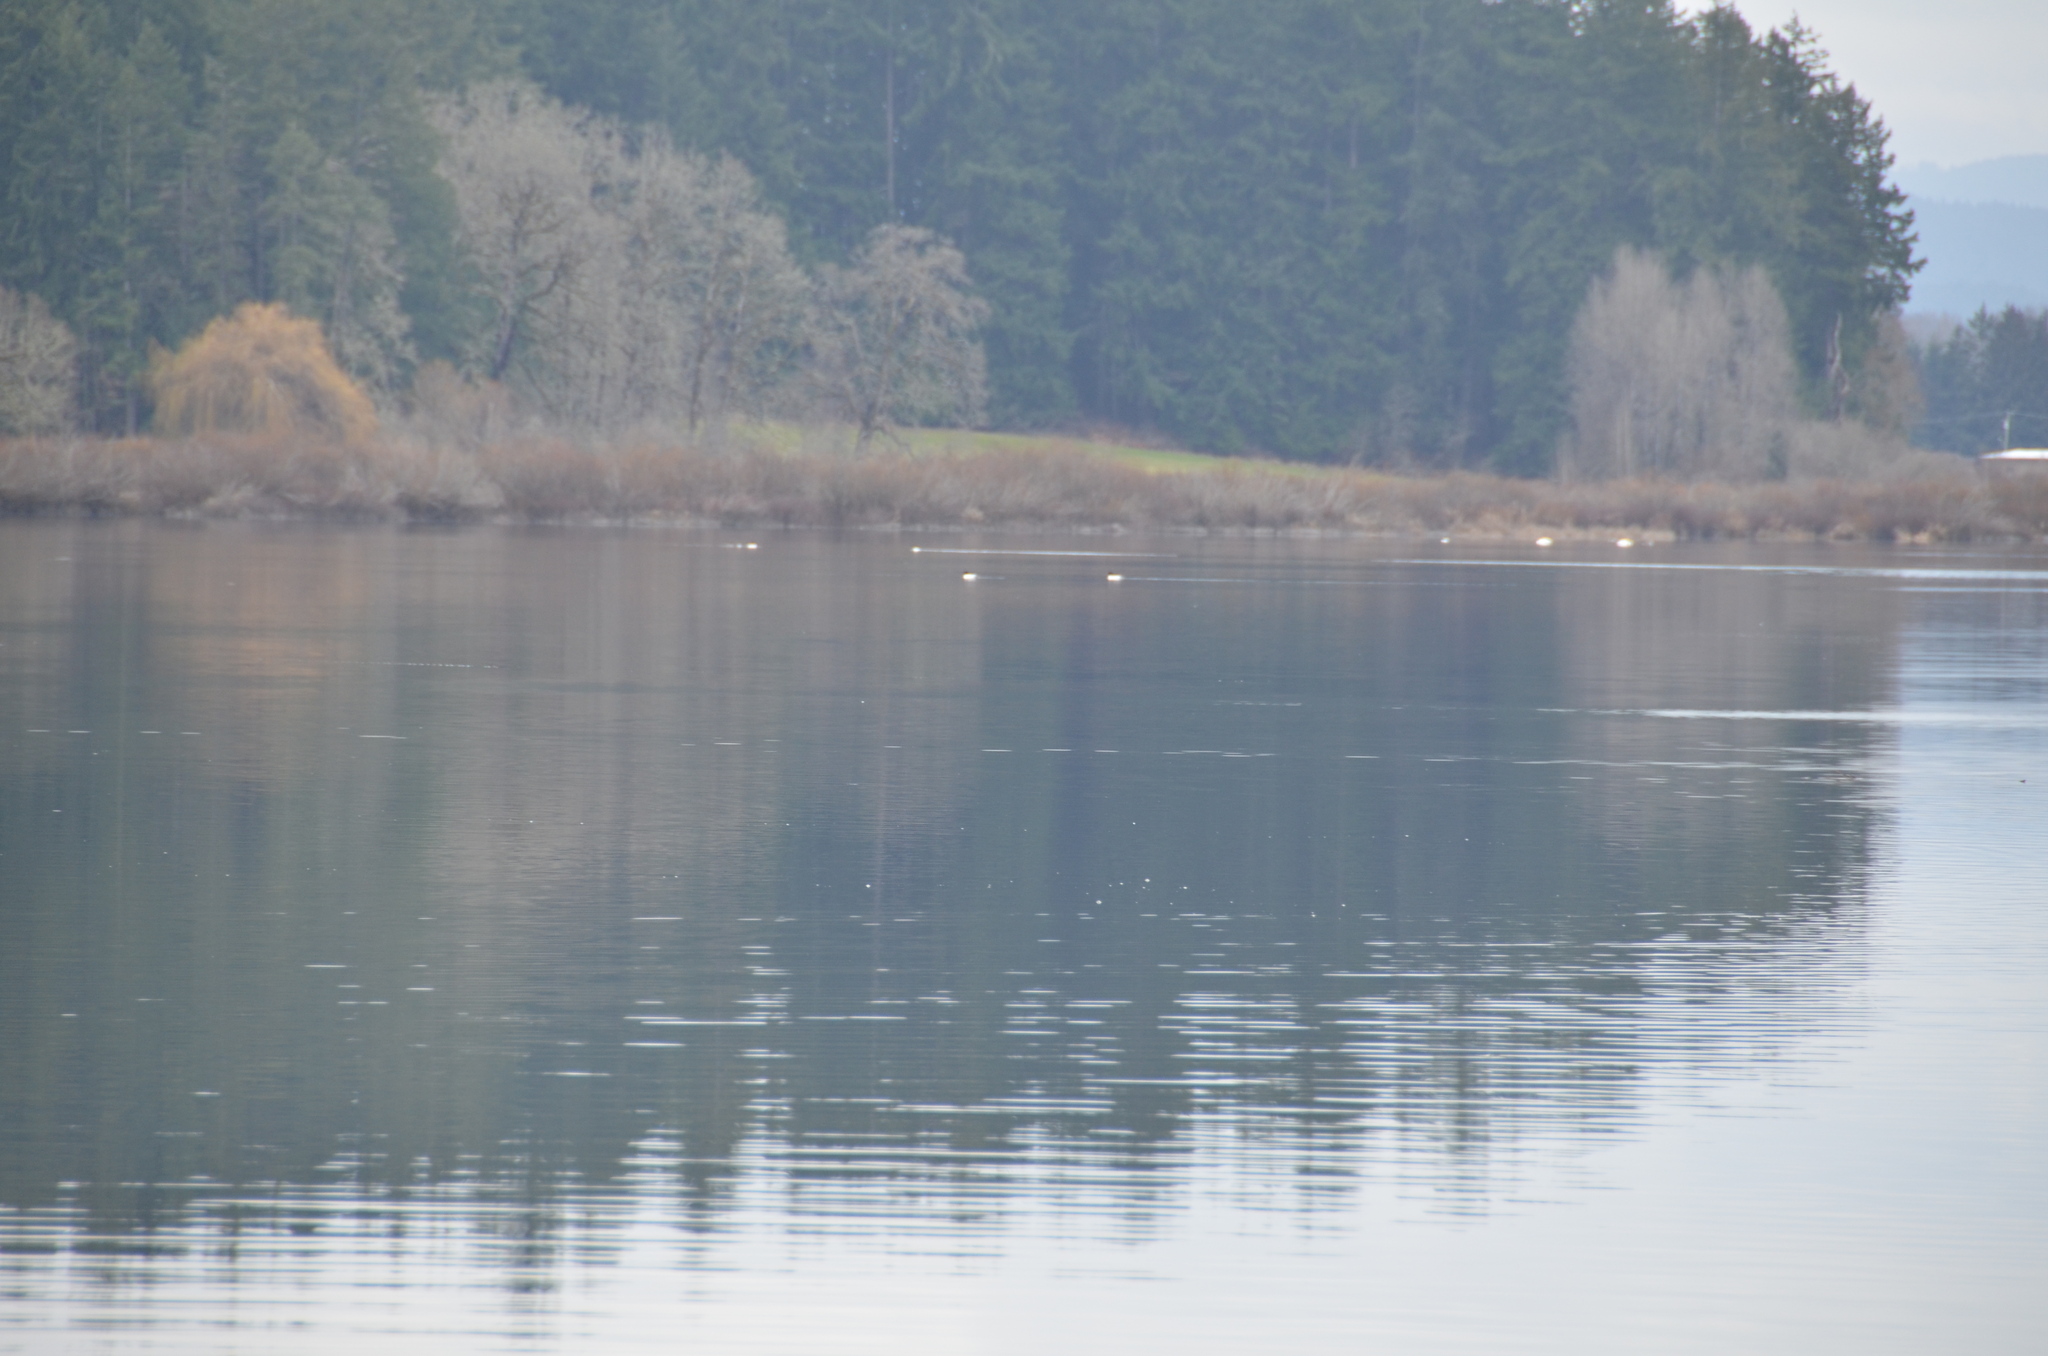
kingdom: Animalia
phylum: Chordata
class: Aves
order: Anseriformes
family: Anatidae
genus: Mergus
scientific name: Mergus merganser
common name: Common merganser
